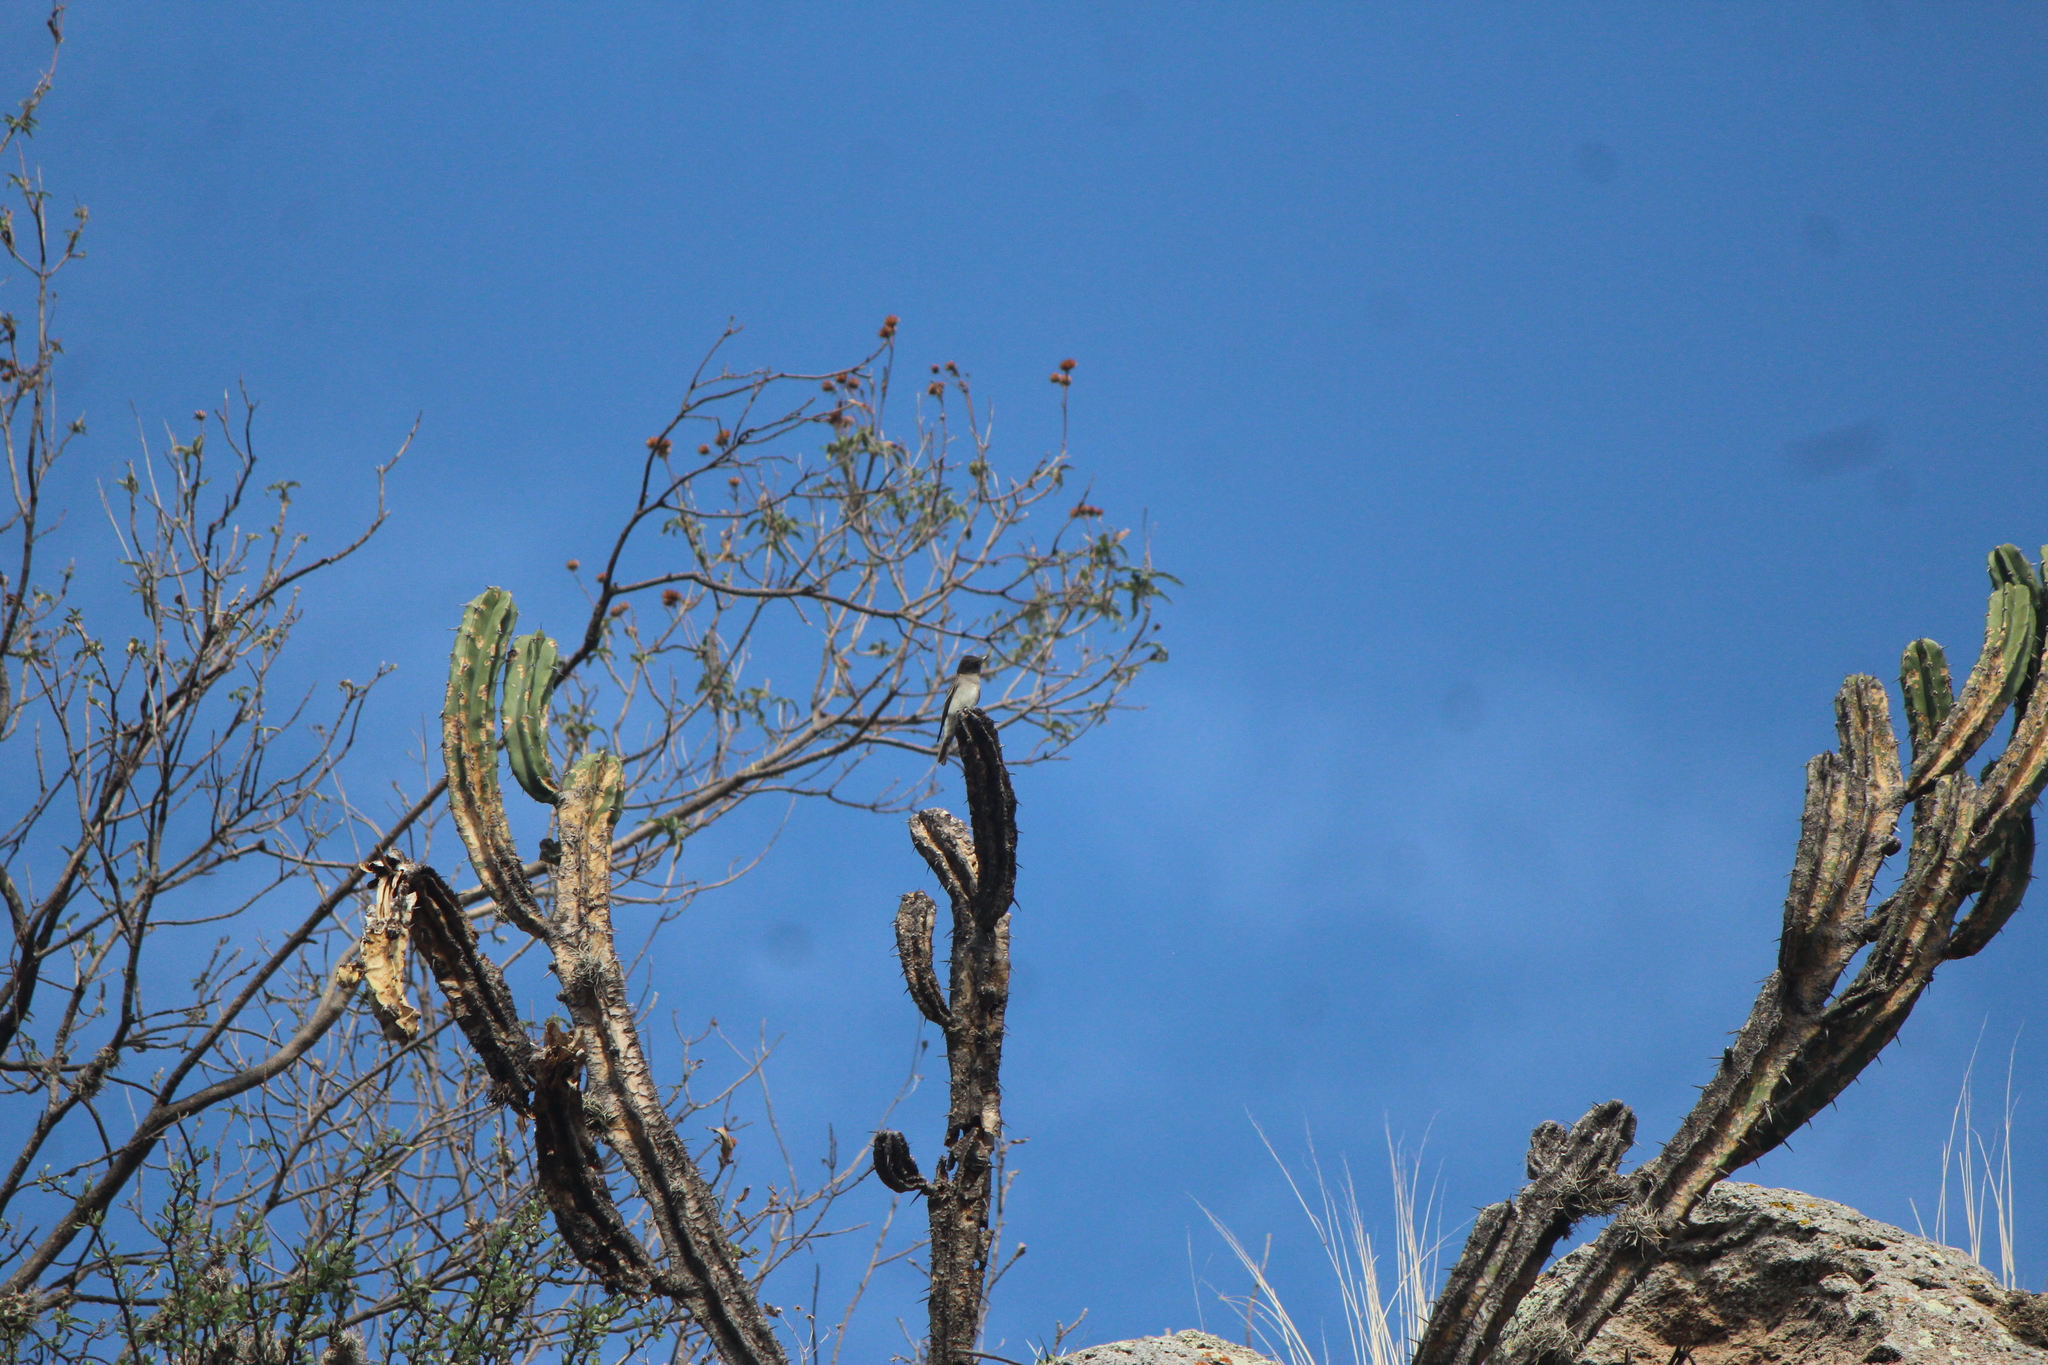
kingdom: Animalia
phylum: Chordata
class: Aves
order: Passeriformes
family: Tyrannidae
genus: Contopus
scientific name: Contopus sordidulus
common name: Western wood-pewee
